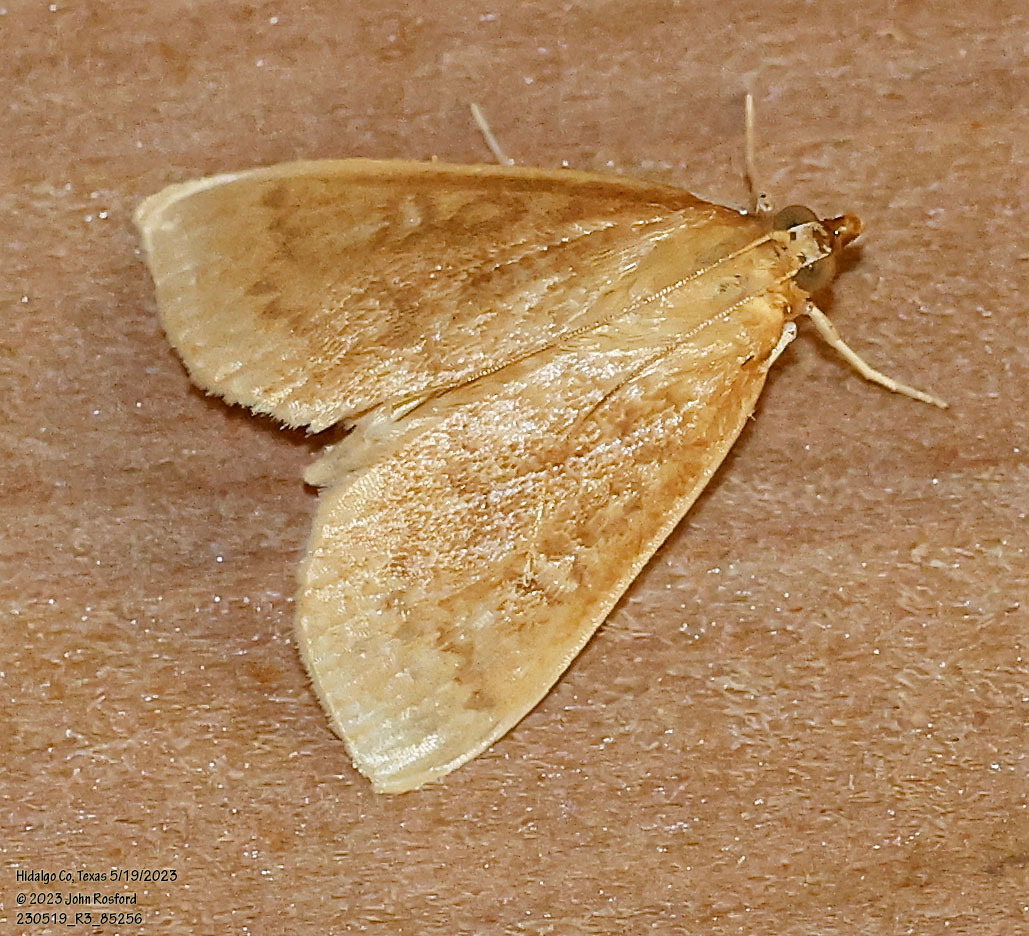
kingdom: Animalia
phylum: Arthropoda
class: Insecta
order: Lepidoptera
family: Crambidae
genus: Anania
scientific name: Anania Framinghamia helvalis
